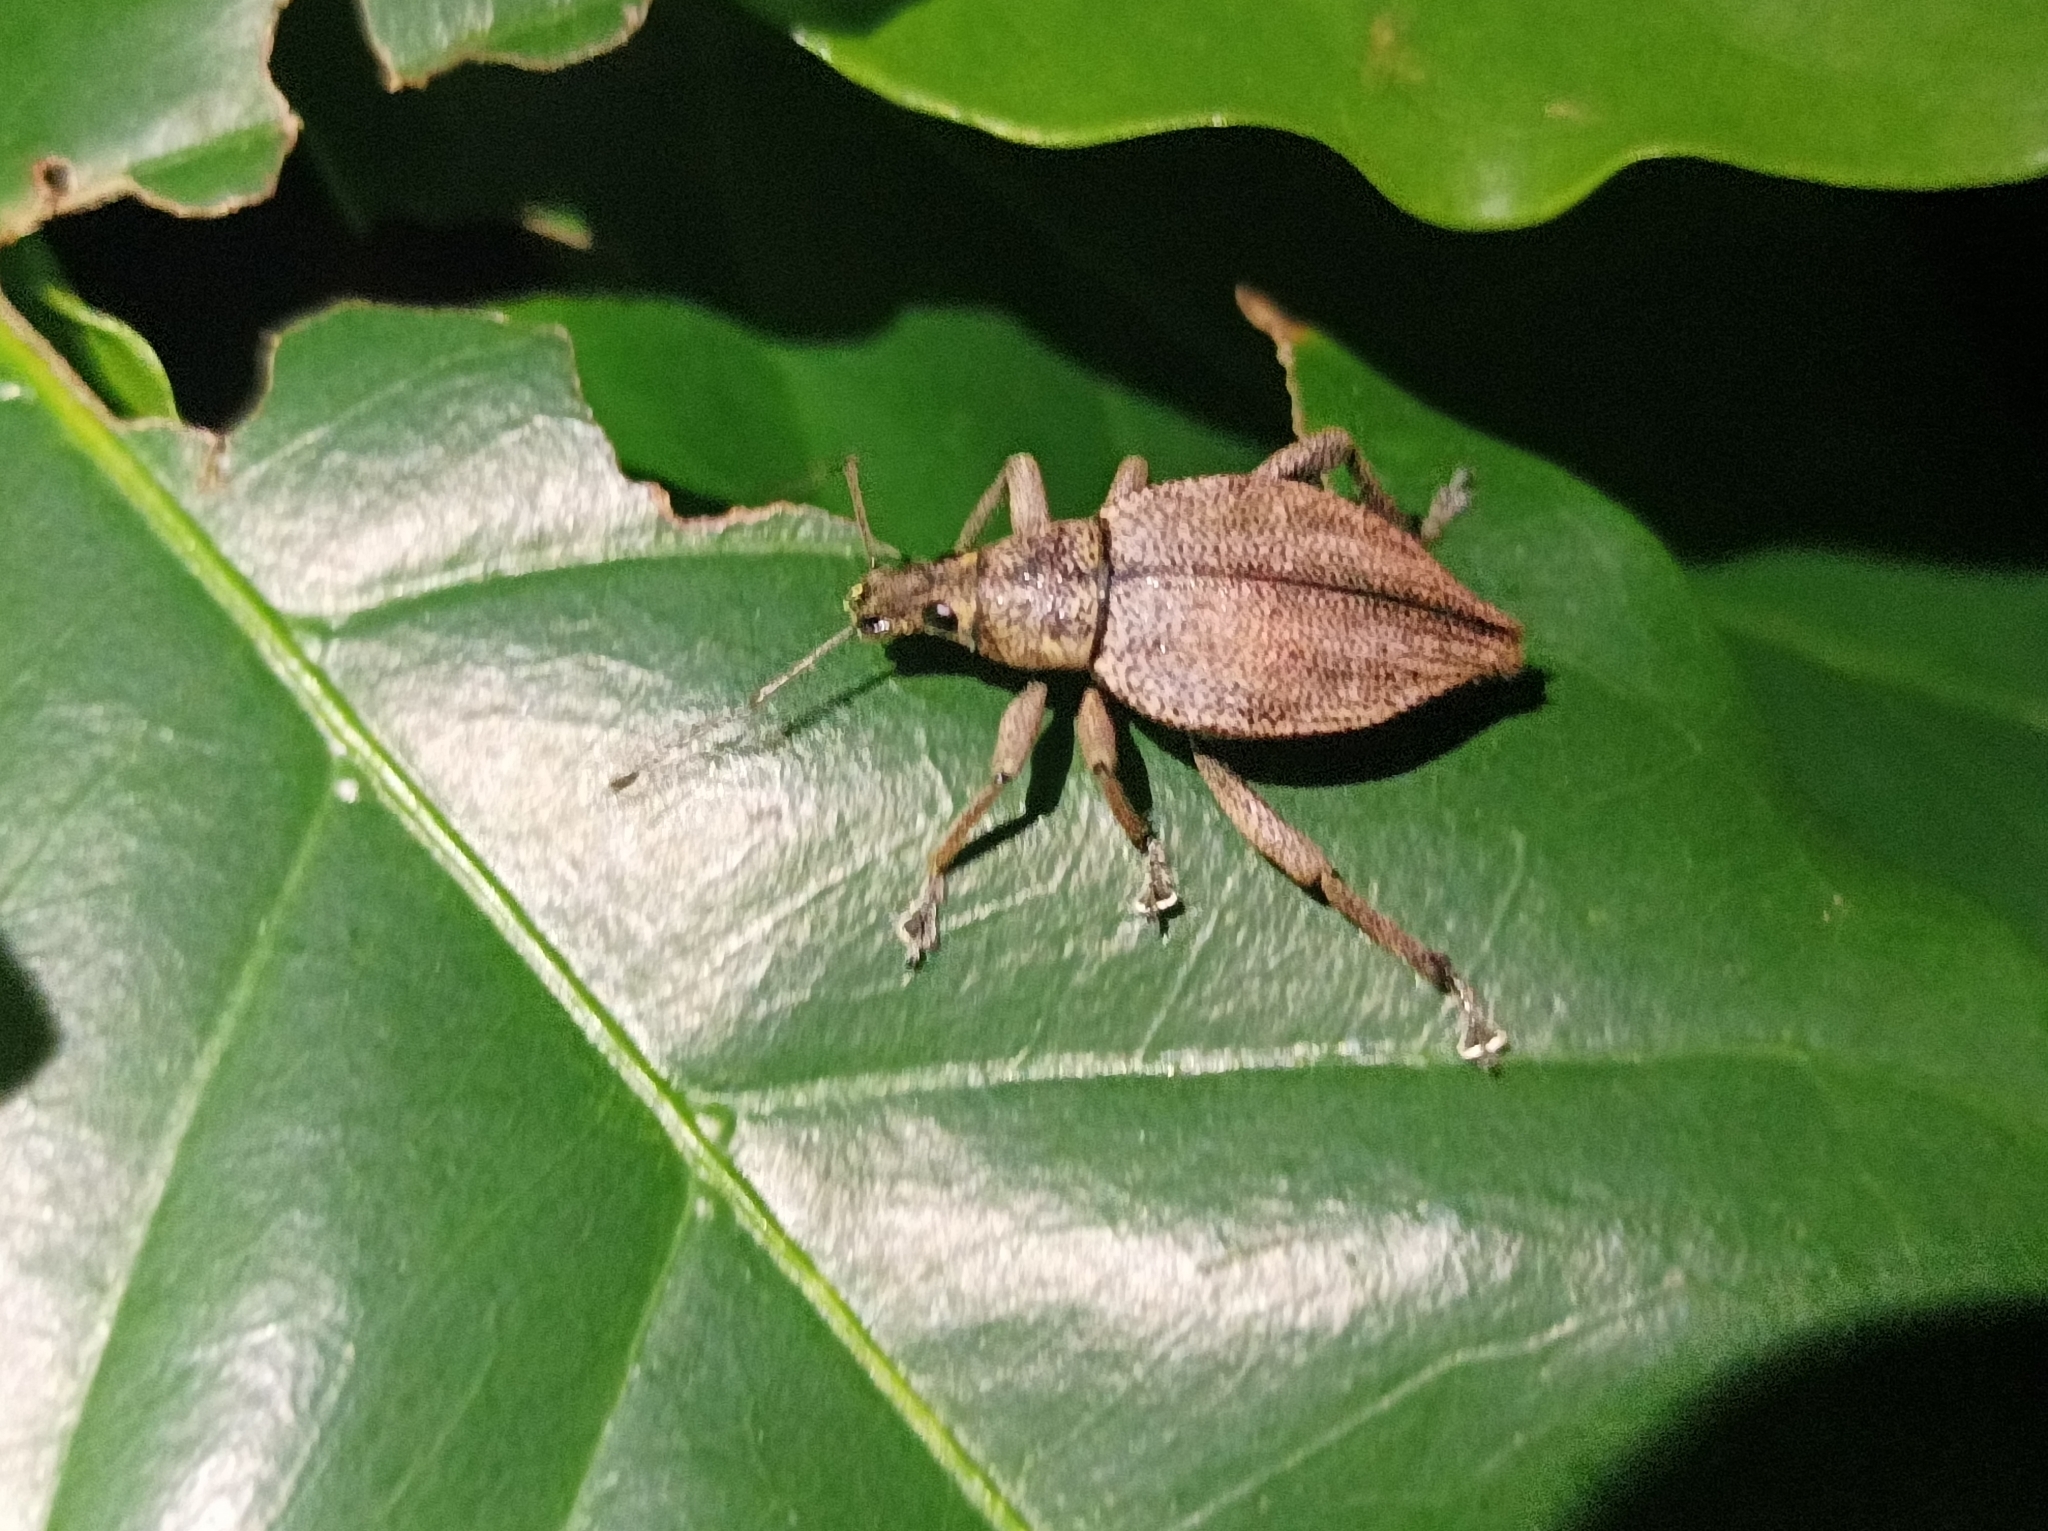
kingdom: Animalia
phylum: Arthropoda
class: Insecta
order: Coleoptera
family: Curculionidae
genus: Elytrurus
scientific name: Elytrurus serrulatus
